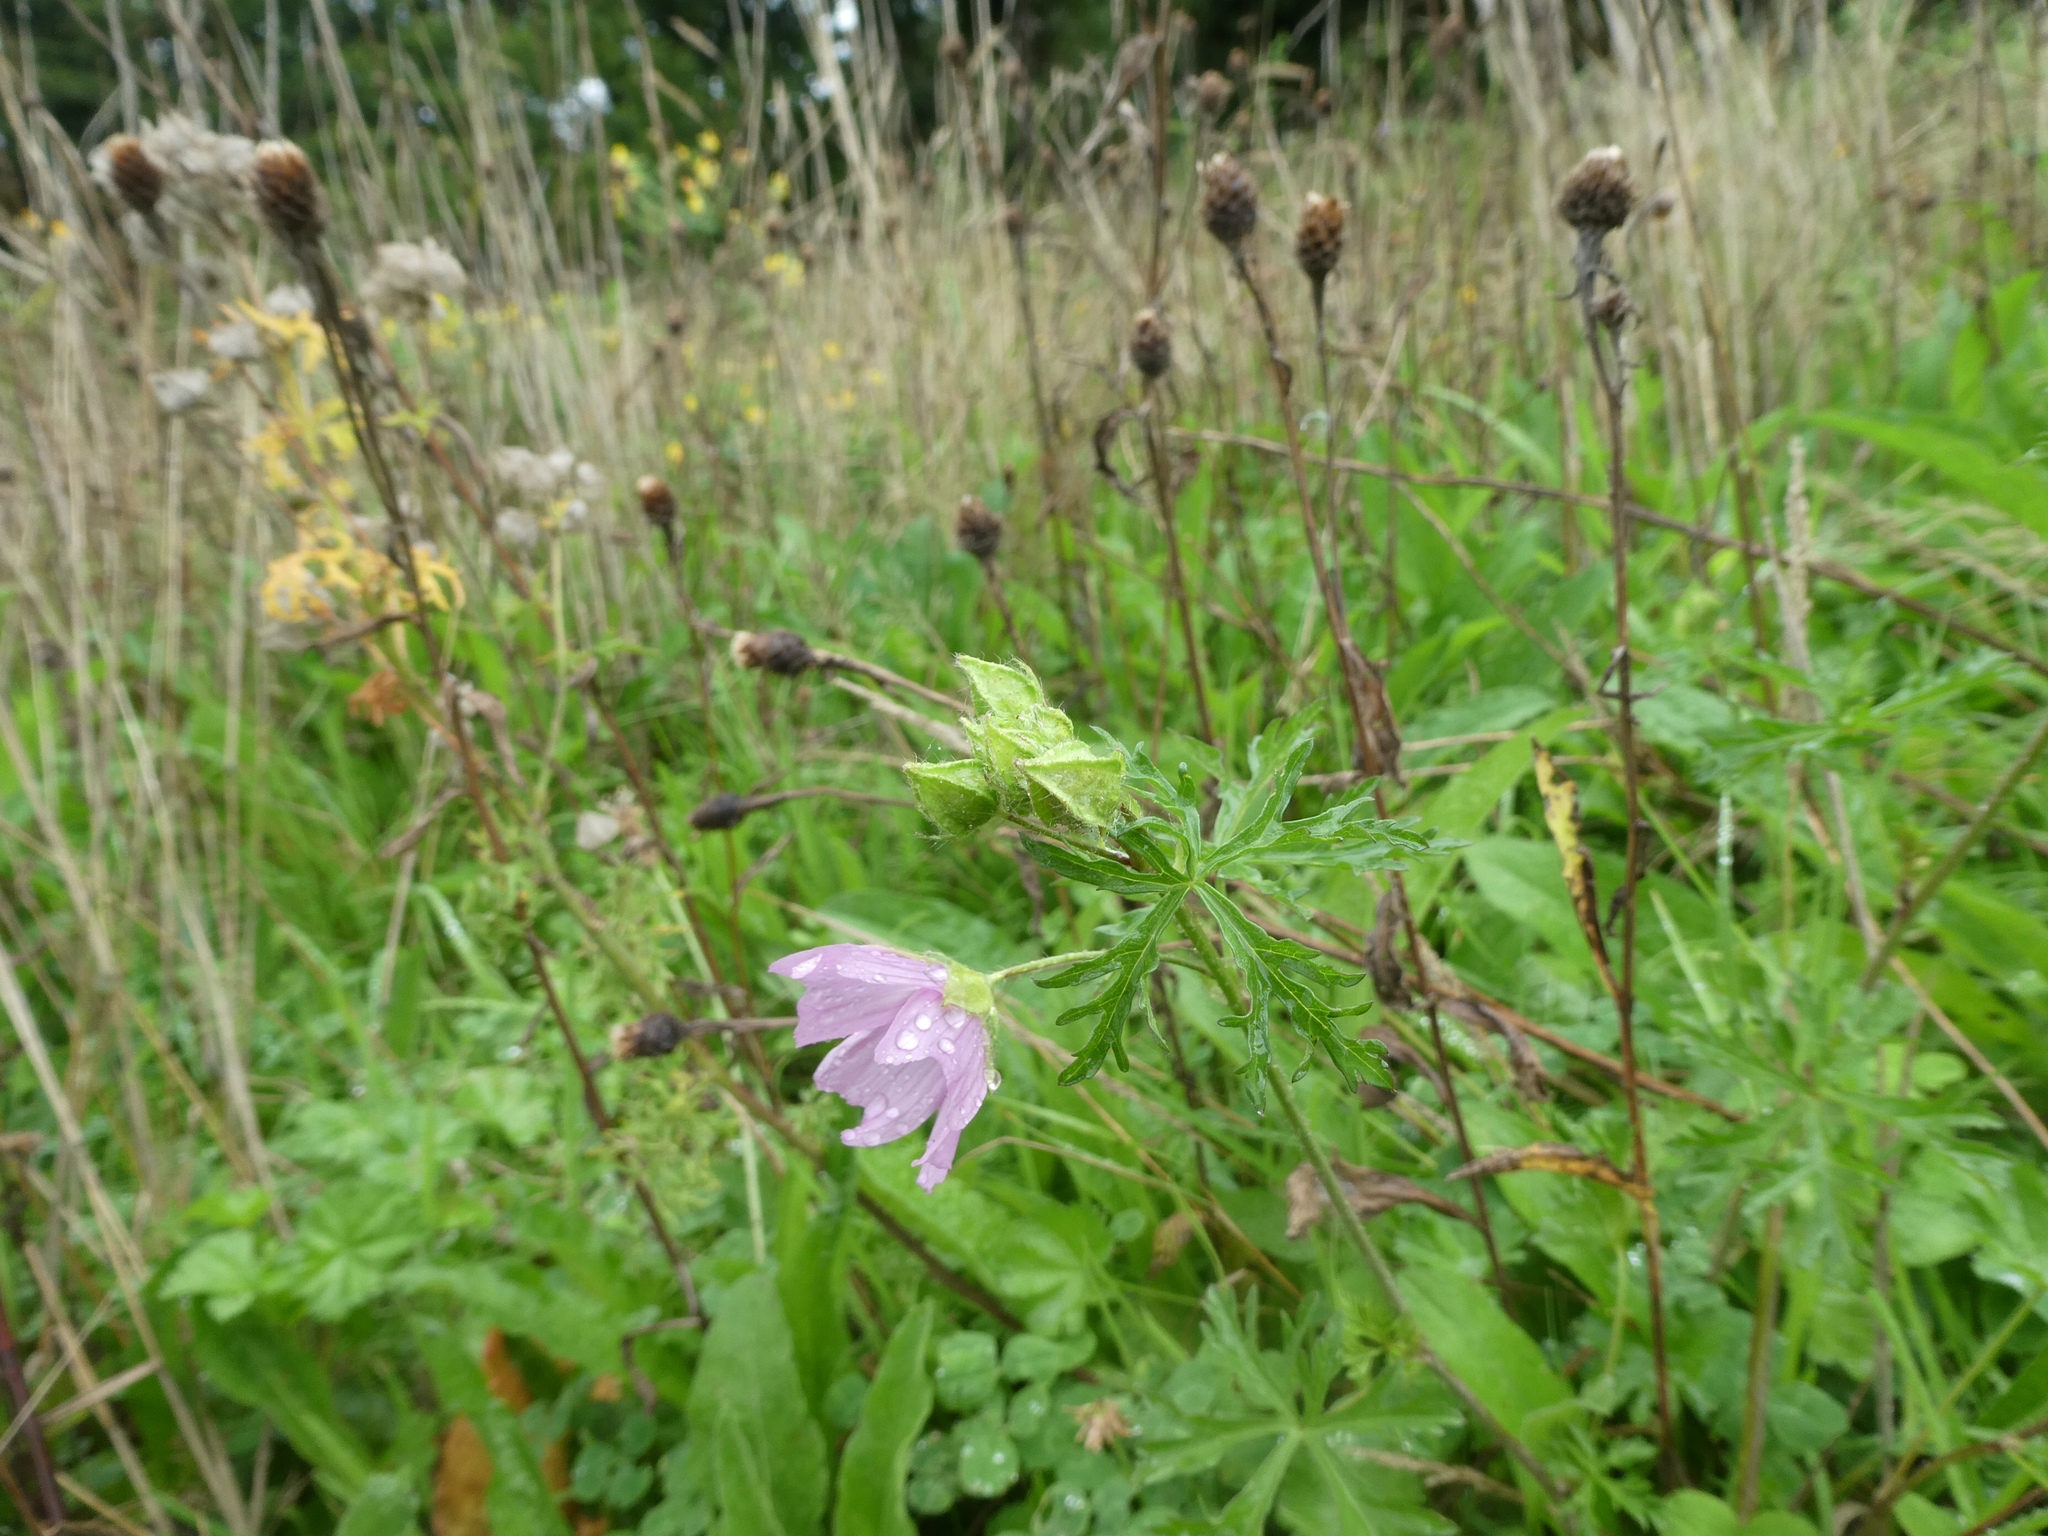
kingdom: Plantae
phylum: Tracheophyta
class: Magnoliopsida
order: Malvales
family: Malvaceae
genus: Malva
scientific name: Malva moschata
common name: Musk mallow
